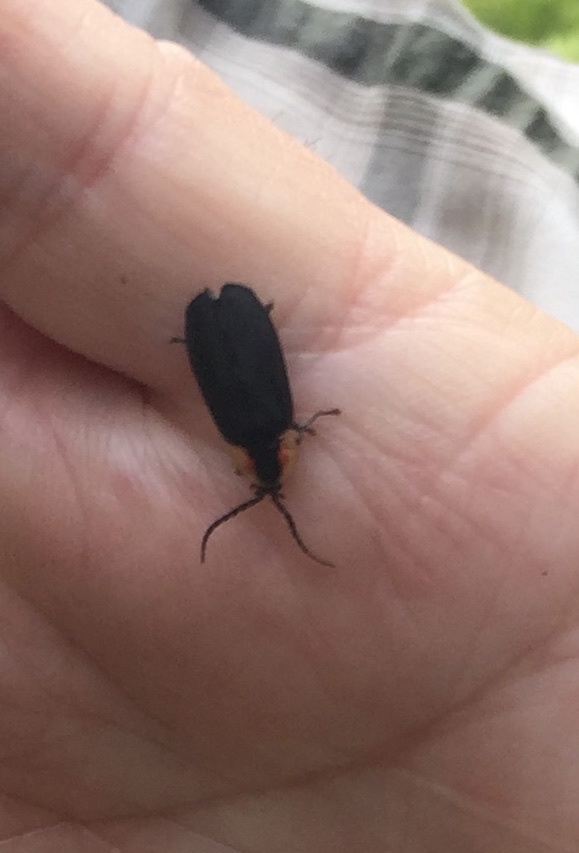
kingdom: Animalia
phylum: Arthropoda
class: Insecta
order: Coleoptera
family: Lampyridae
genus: Lucidota
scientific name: Lucidota atra
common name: Black firefly
